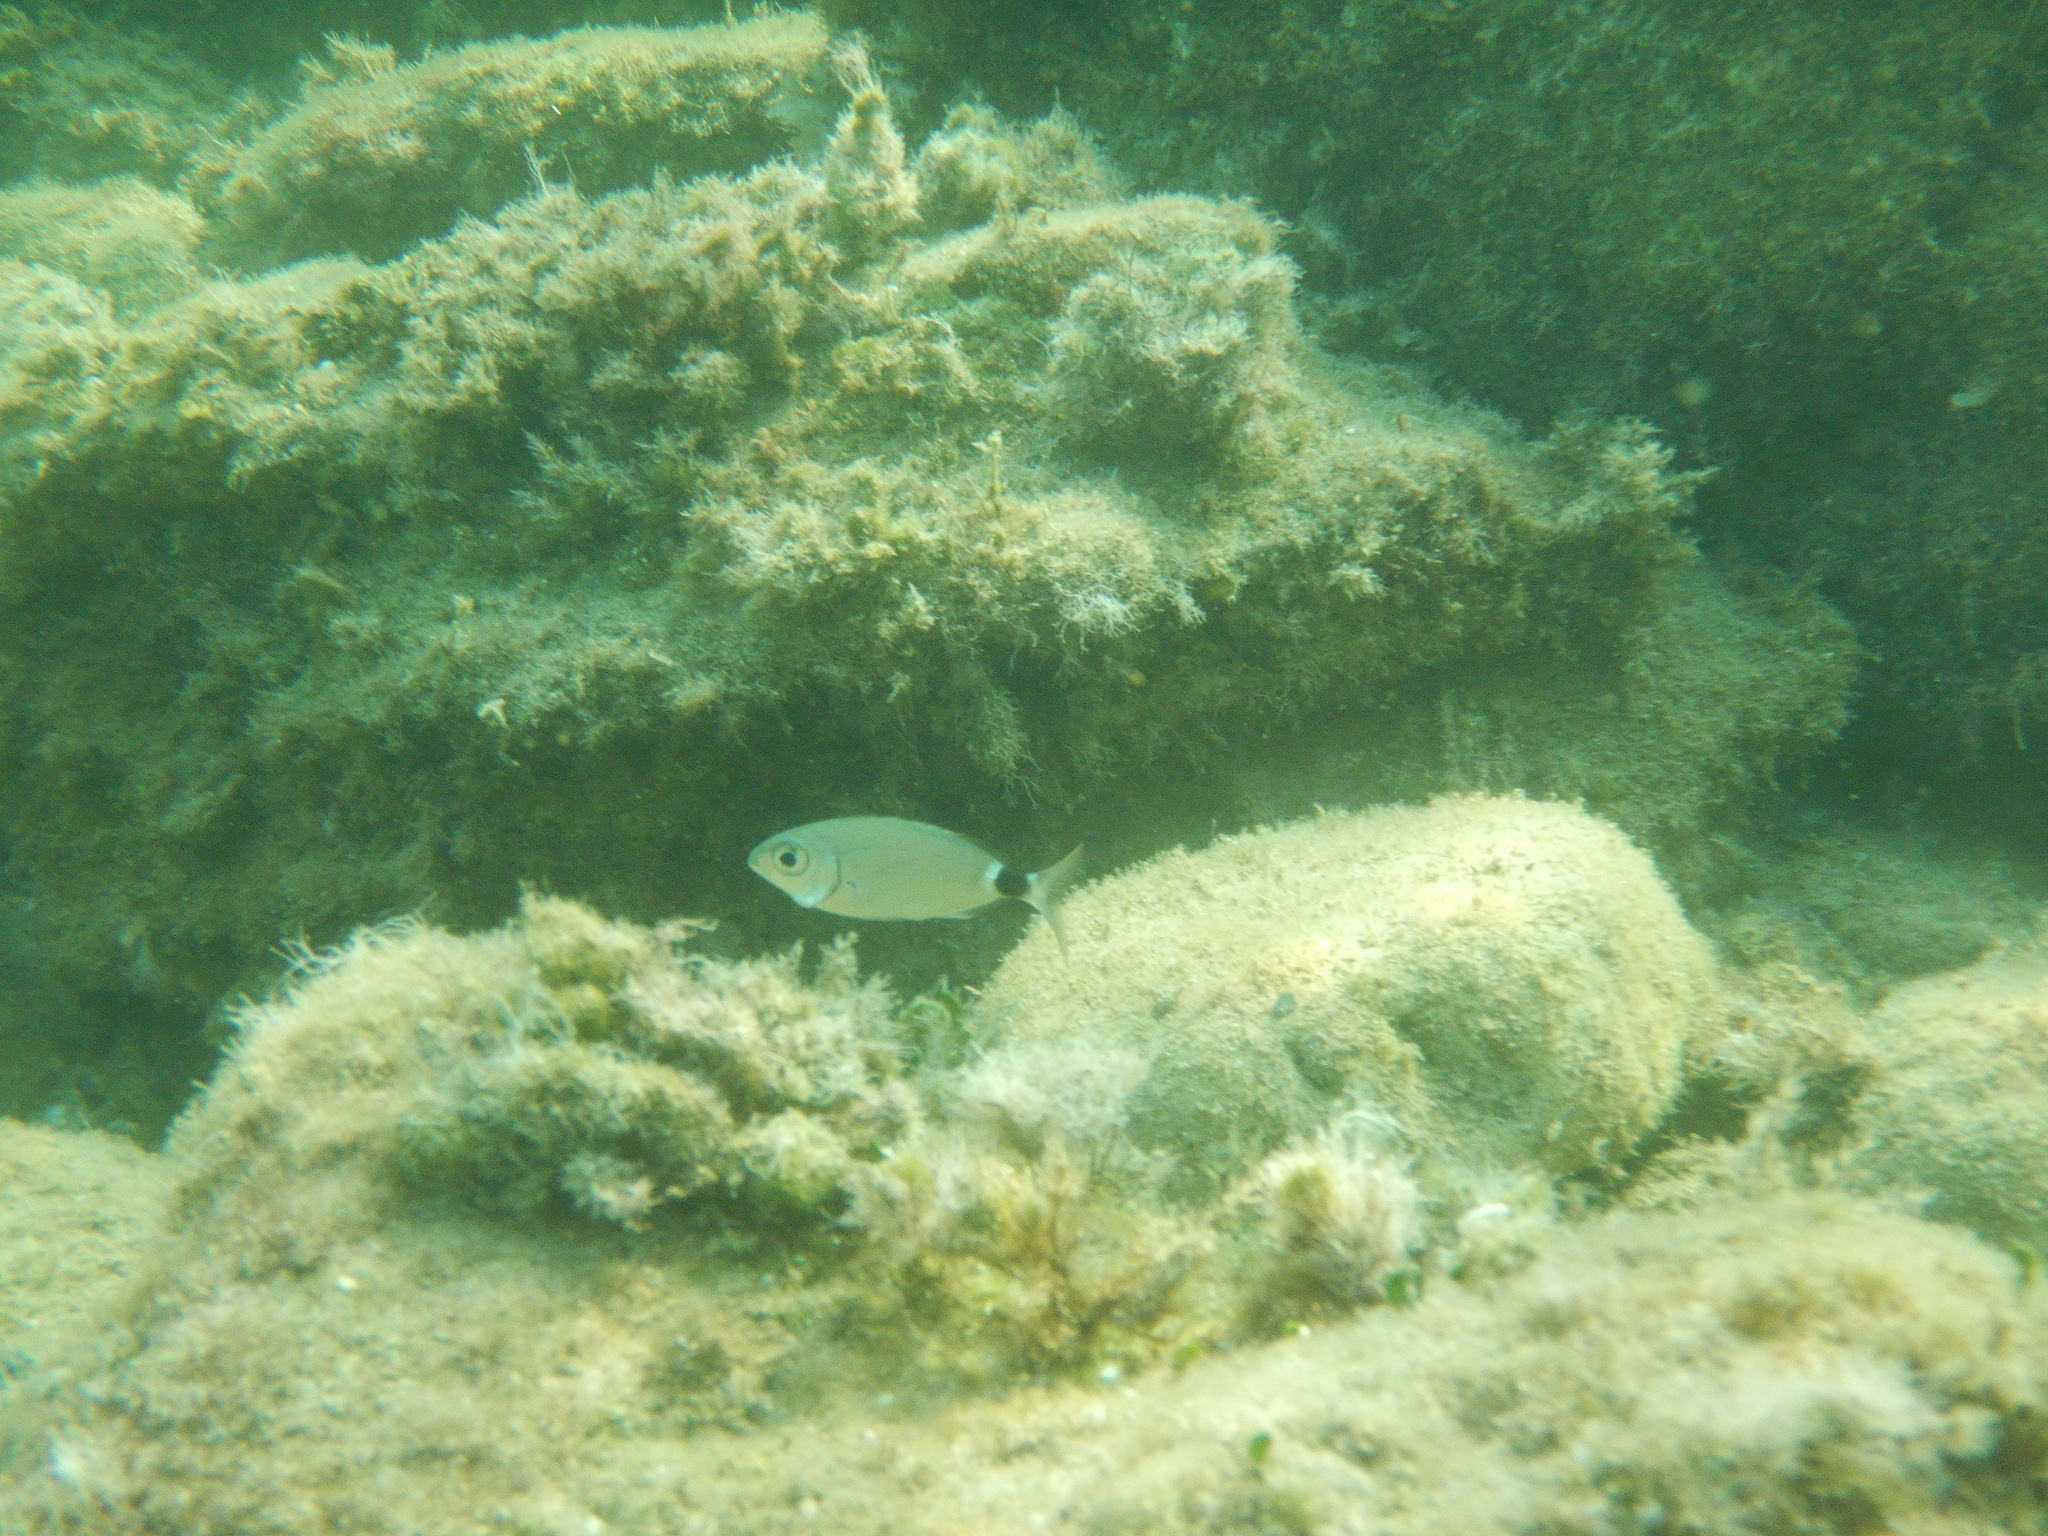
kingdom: Animalia
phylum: Chordata
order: Perciformes
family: Sparidae
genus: Oblada
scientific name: Oblada melanura
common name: Saddled seabream
